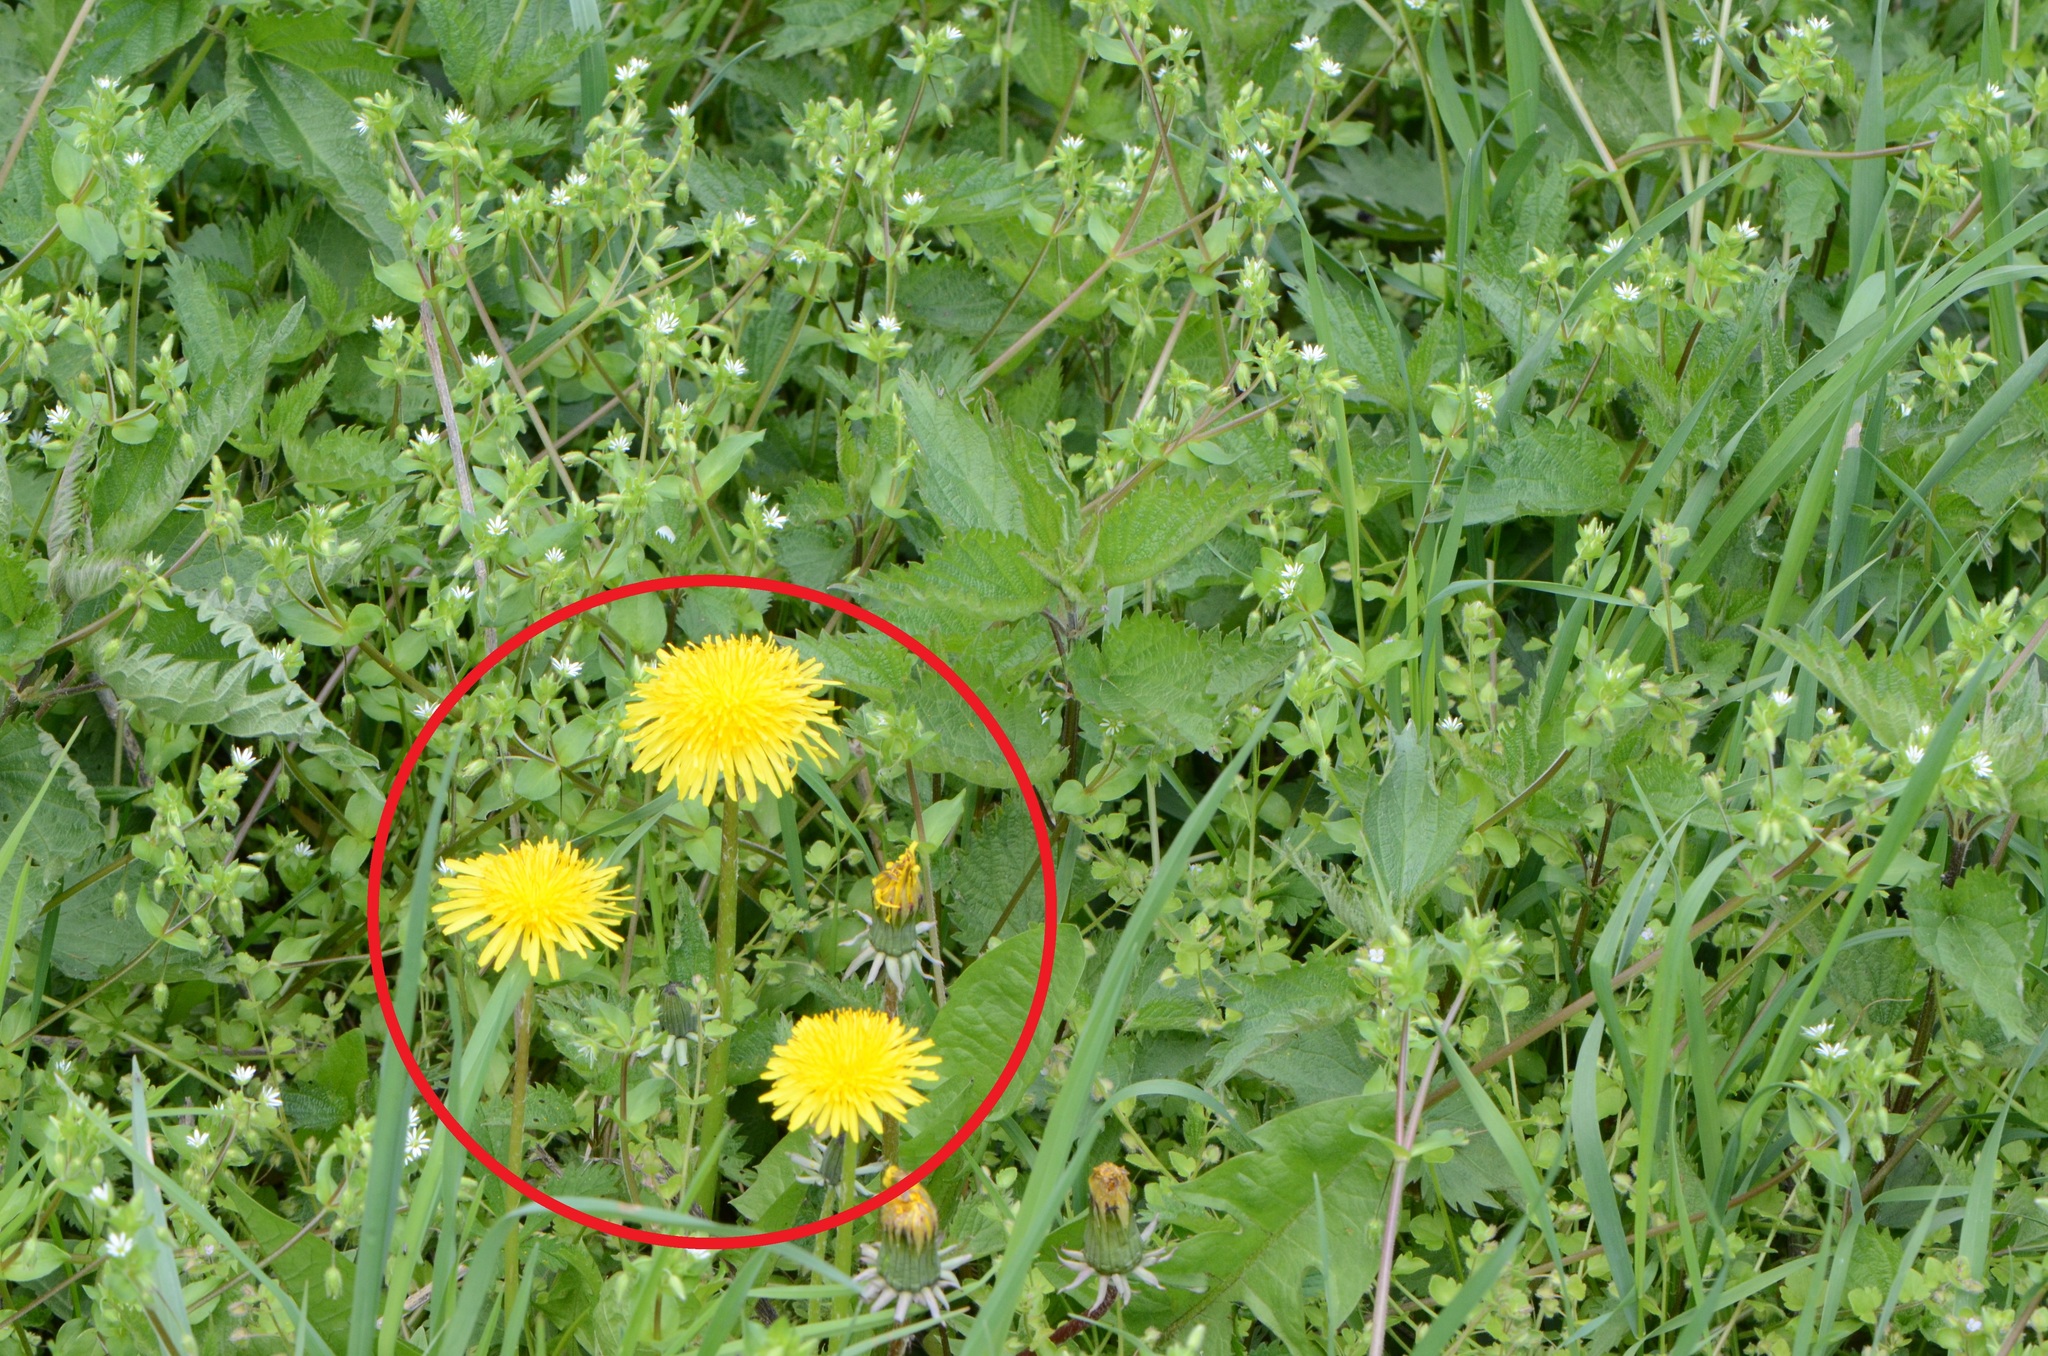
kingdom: Plantae
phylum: Tracheophyta
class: Magnoliopsida
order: Asterales
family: Asteraceae
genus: Taraxacum
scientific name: Taraxacum officinale
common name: Common dandelion
